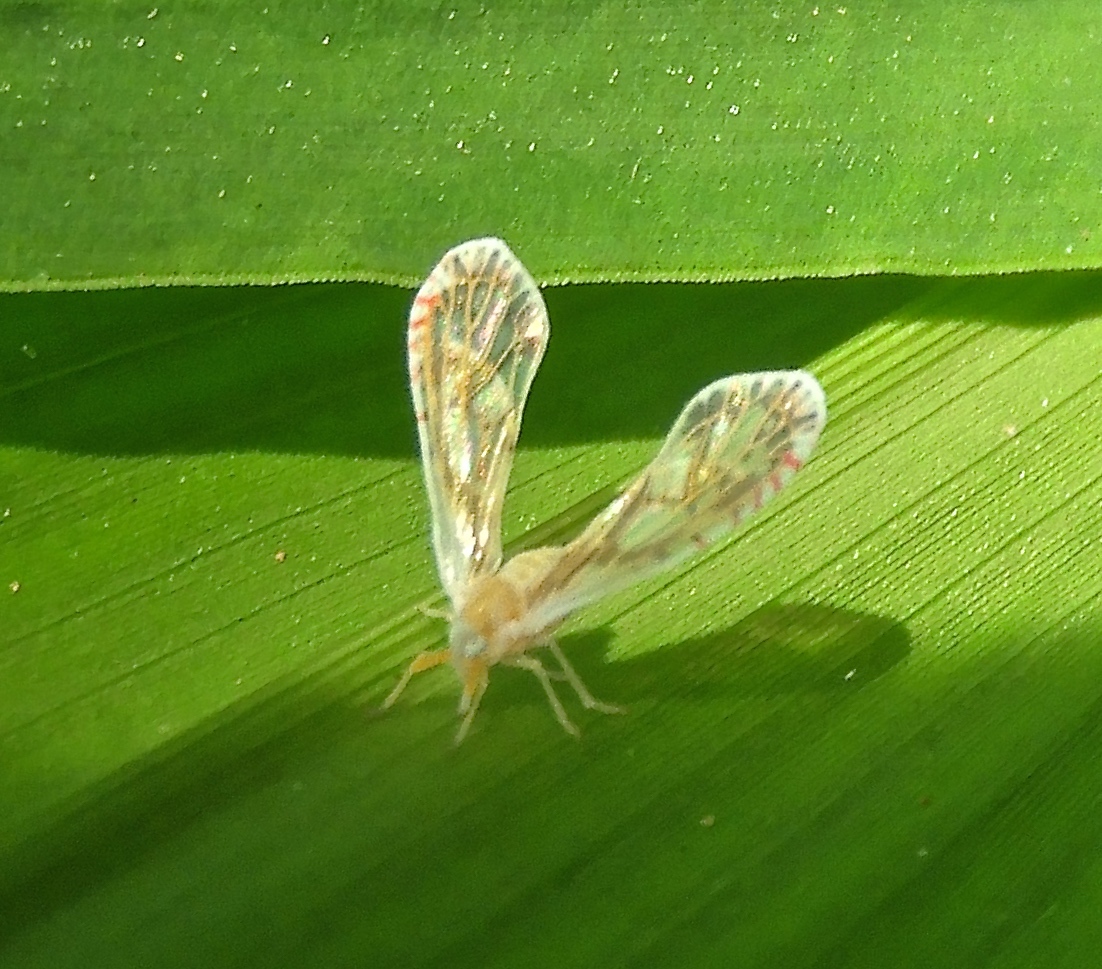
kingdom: Animalia
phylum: Arthropoda
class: Insecta
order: Hemiptera
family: Derbidae
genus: Anotia
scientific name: Anotia
